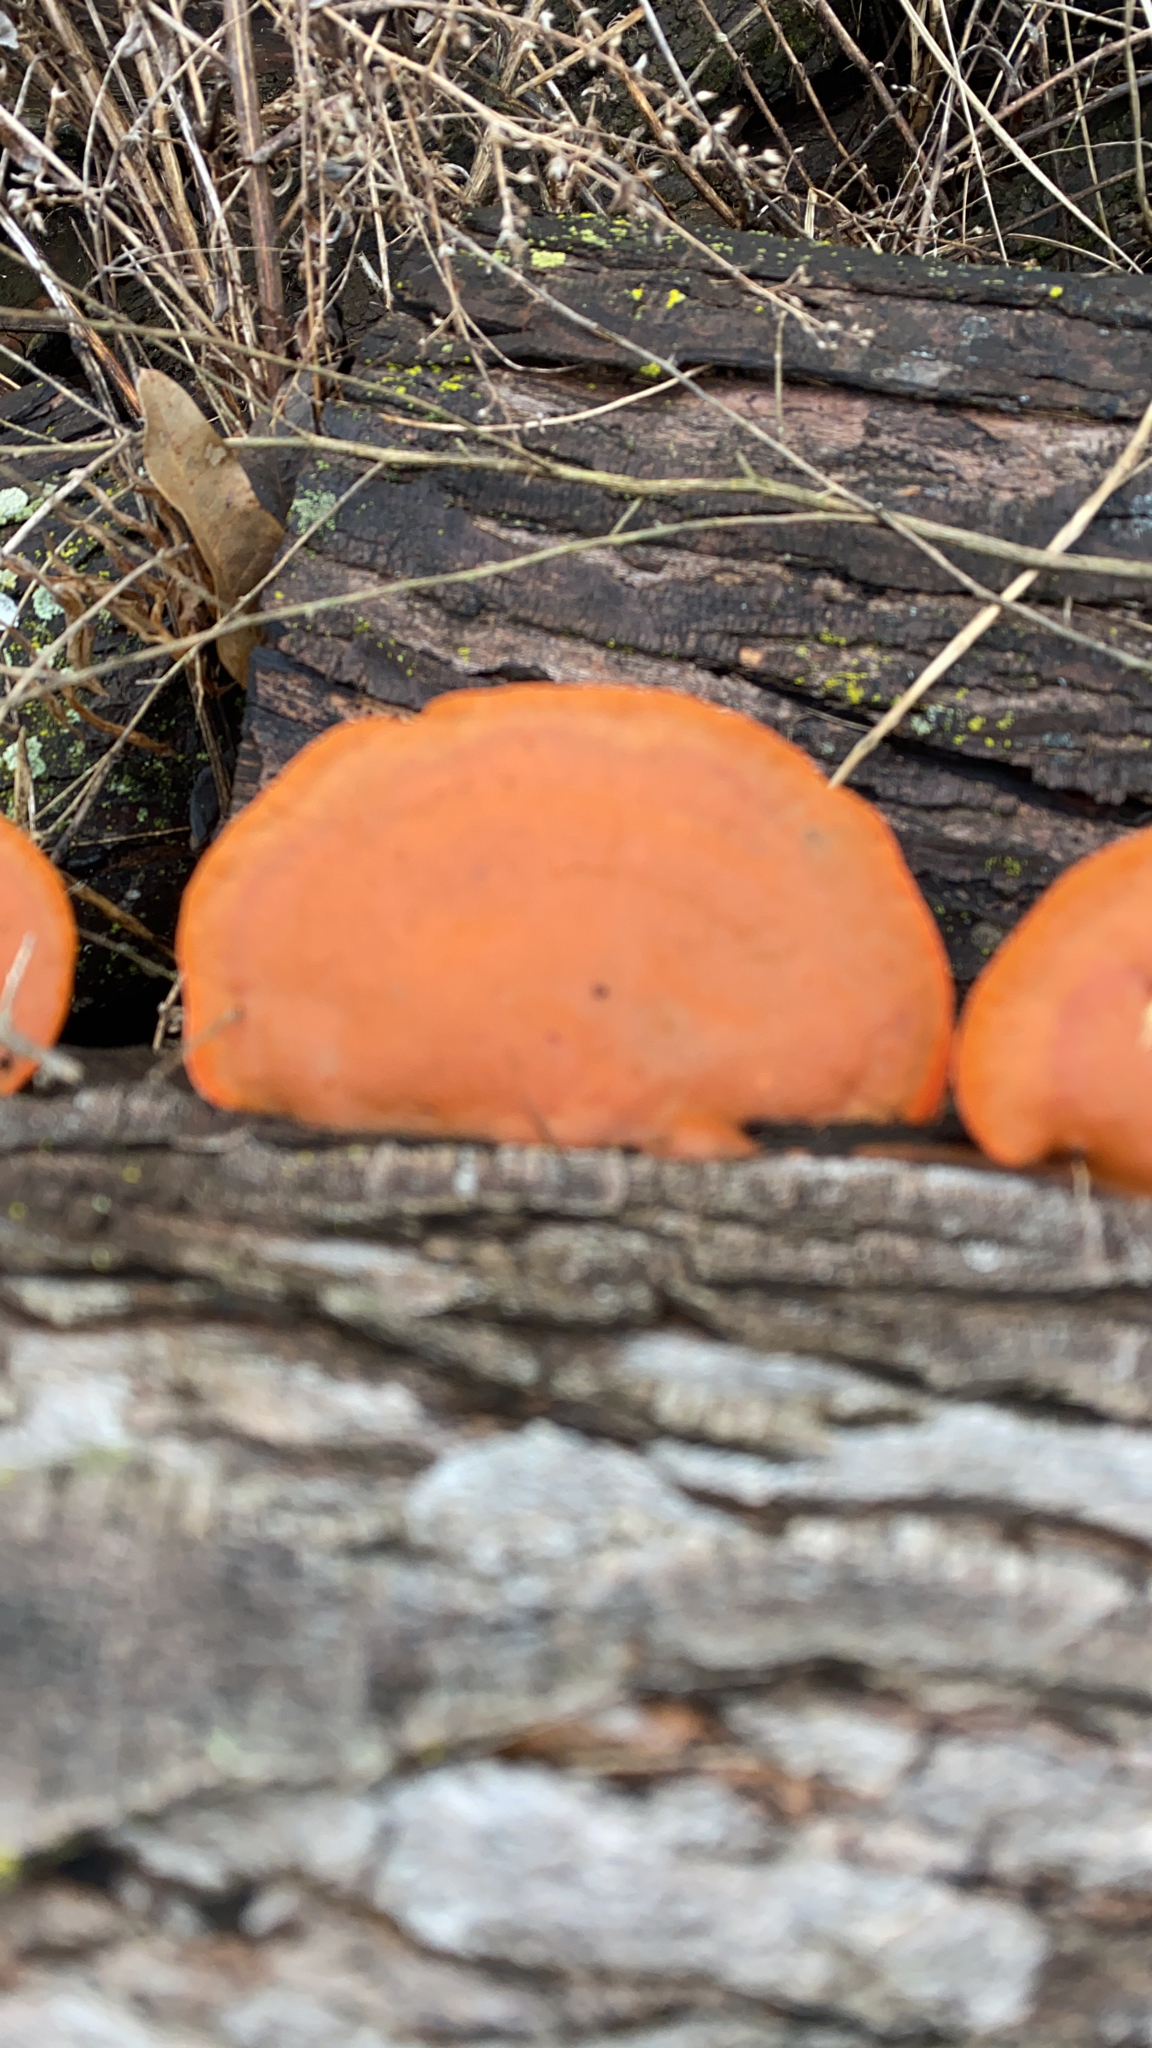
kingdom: Fungi
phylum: Basidiomycota
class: Agaricomycetes
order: Polyporales
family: Polyporaceae
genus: Trametes
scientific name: Trametes cinnabarina
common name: Northern cinnabar polypore
